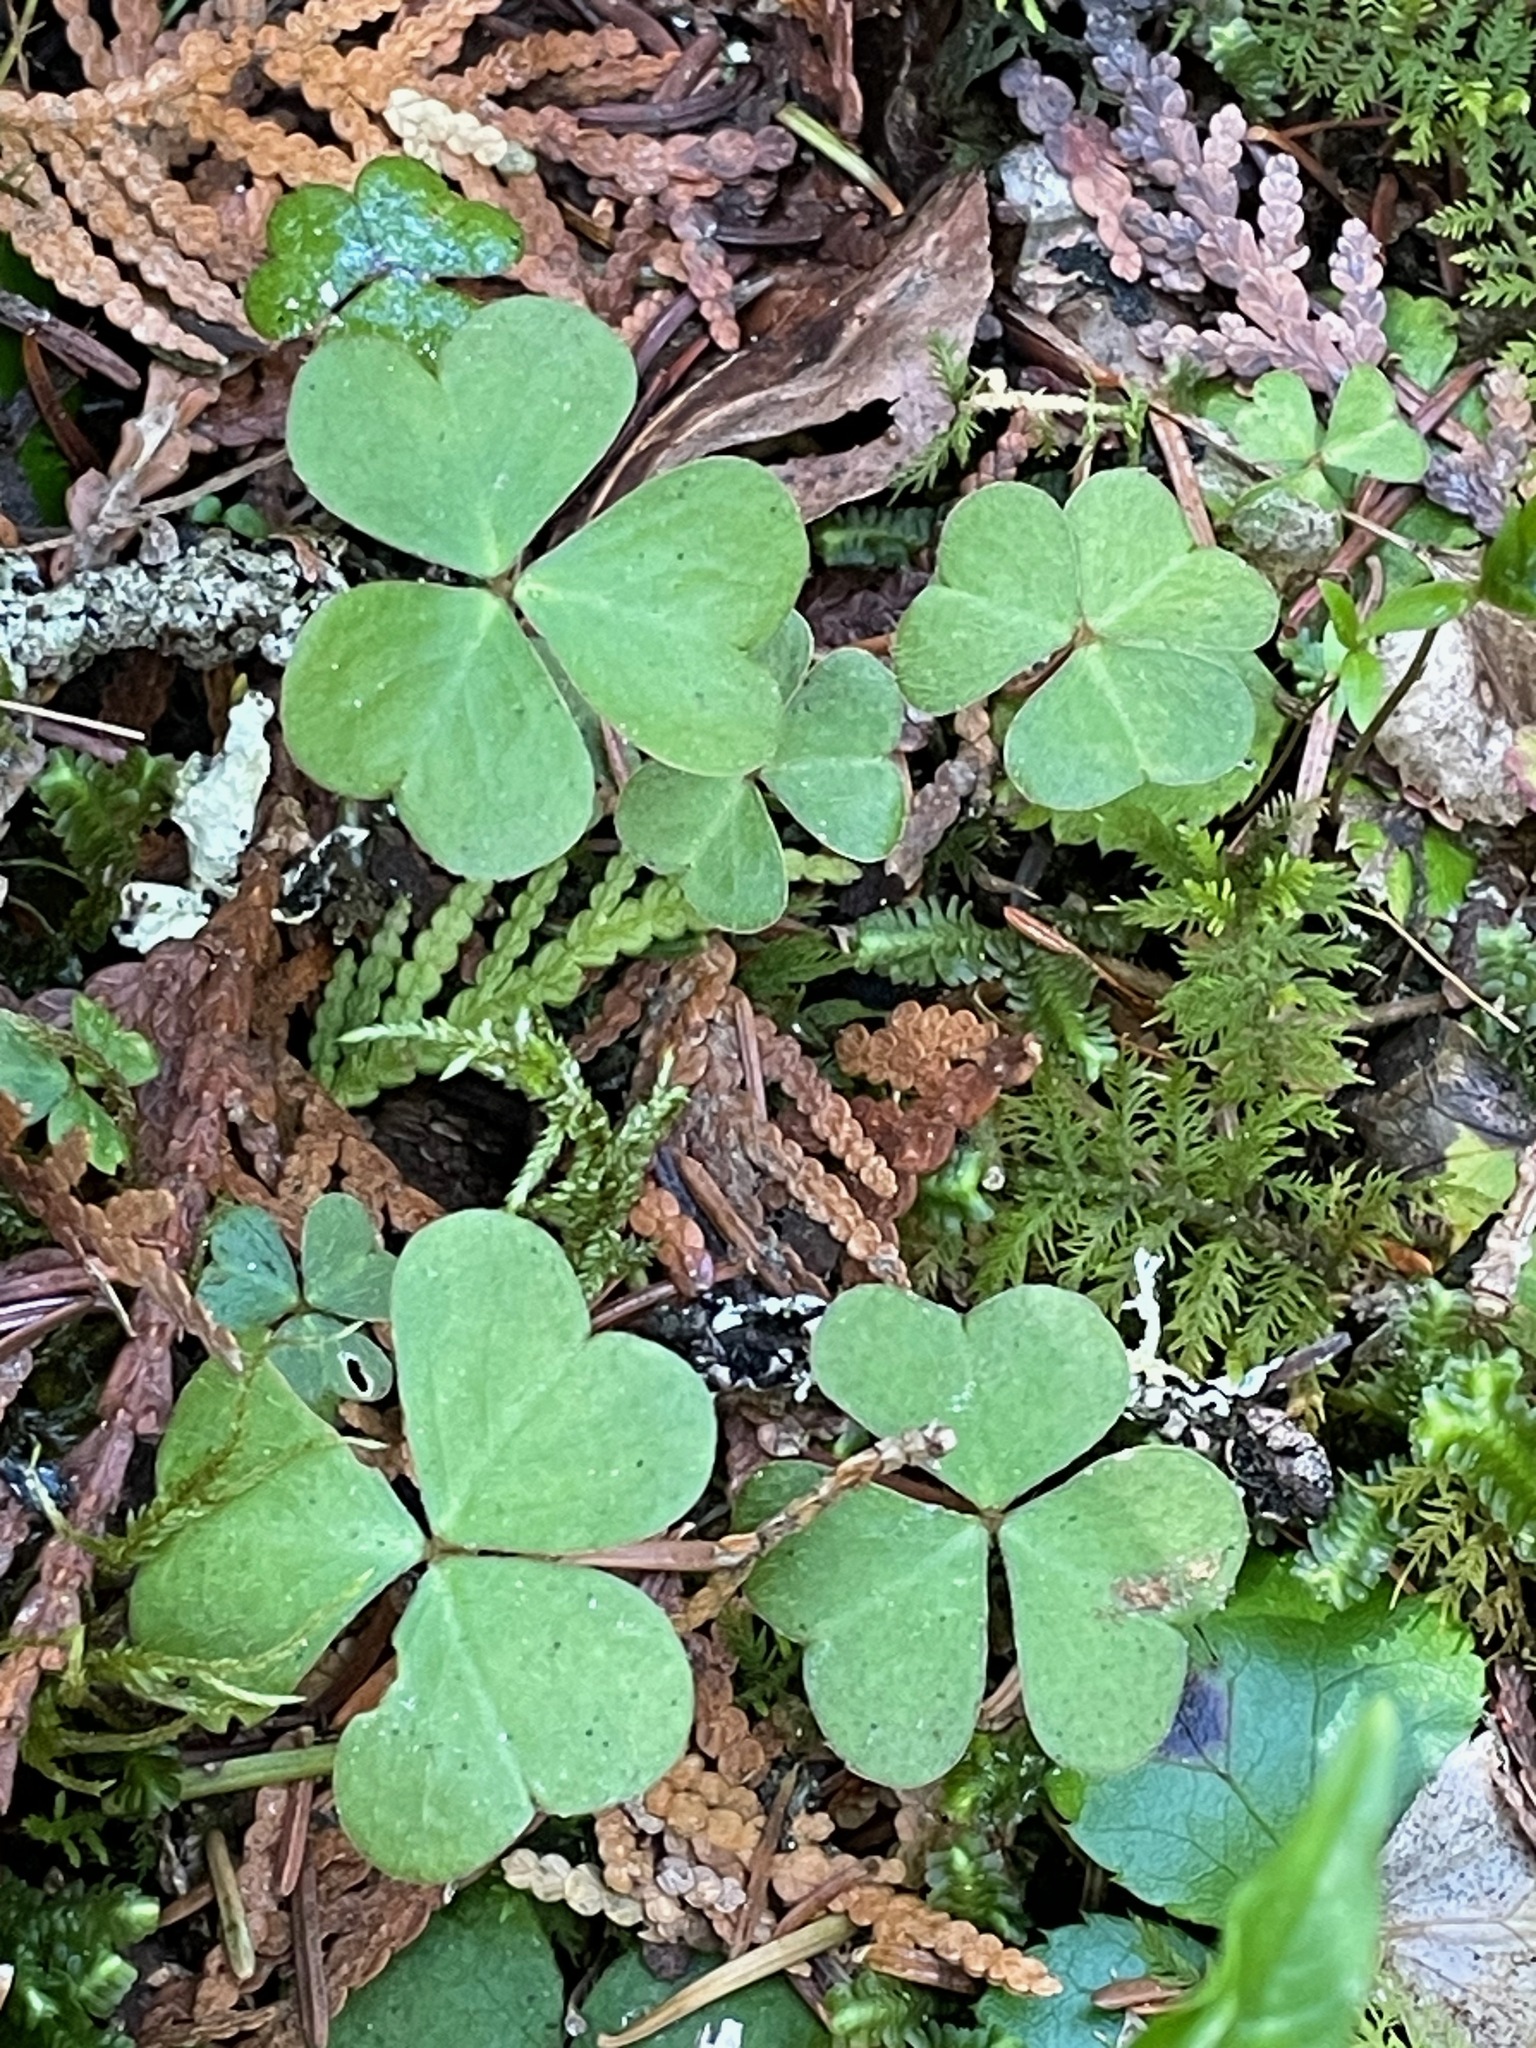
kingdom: Plantae
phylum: Tracheophyta
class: Magnoliopsida
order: Oxalidales
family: Oxalidaceae
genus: Oxalis
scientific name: Oxalis montana
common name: American wood-sorrel
